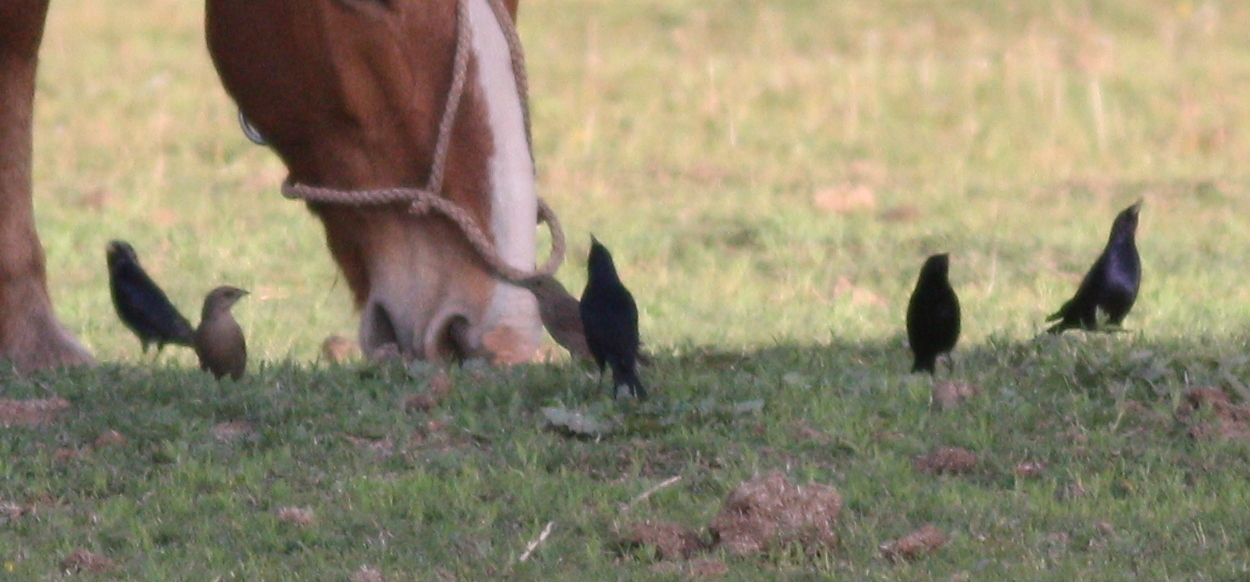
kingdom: Animalia
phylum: Chordata
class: Aves
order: Passeriformes
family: Icteridae
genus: Molothrus
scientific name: Molothrus bonariensis
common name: Shiny cowbird
